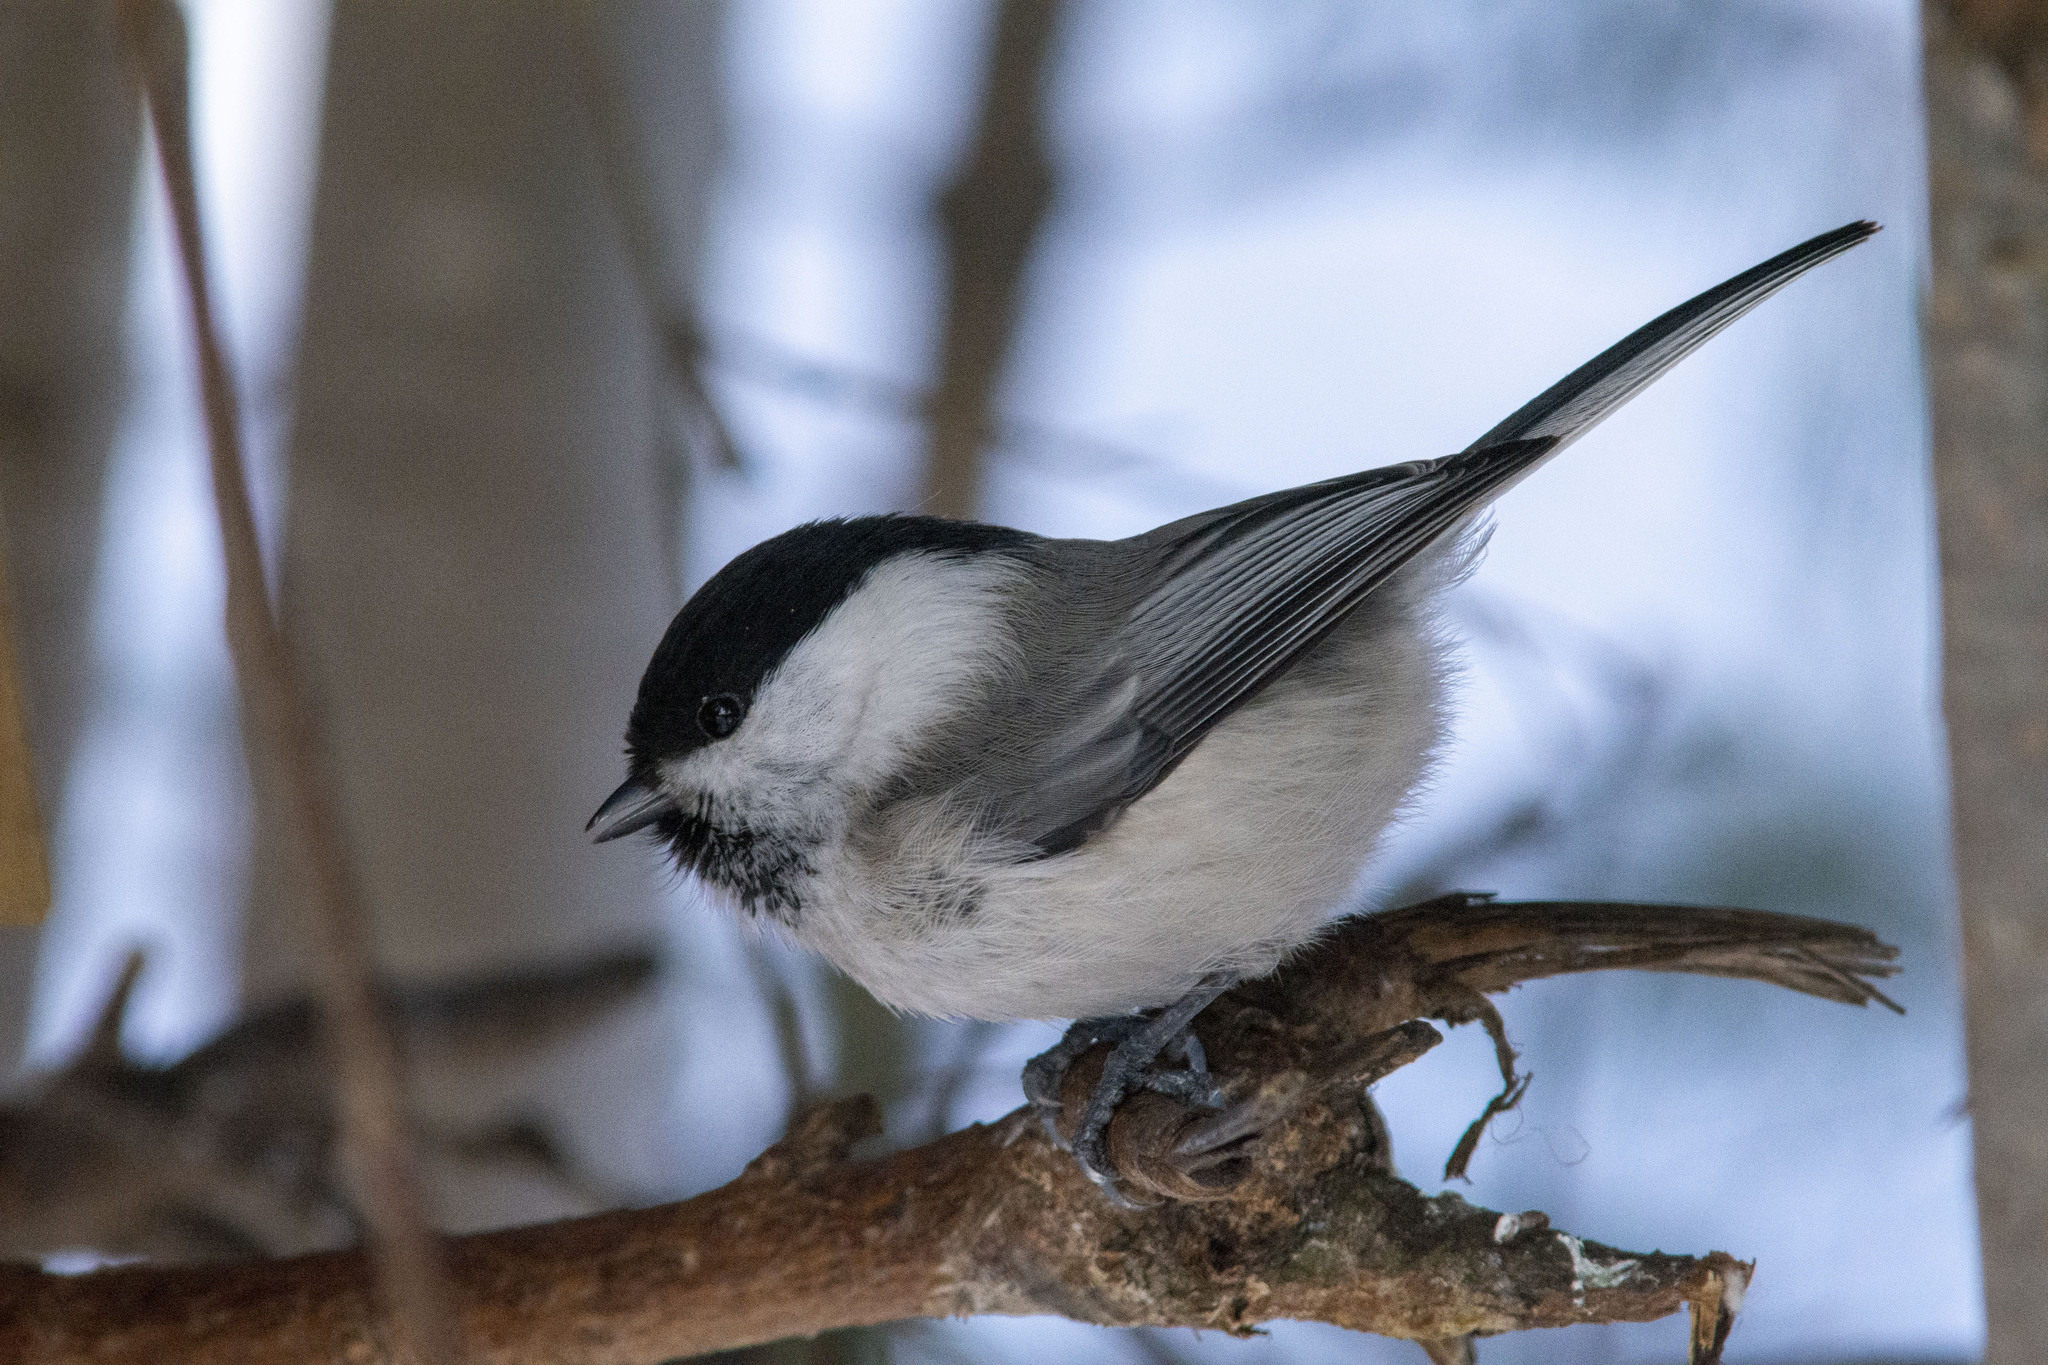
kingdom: Animalia
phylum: Chordata
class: Aves
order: Passeriformes
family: Paridae
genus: Poecile
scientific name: Poecile montanus
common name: Willow tit
